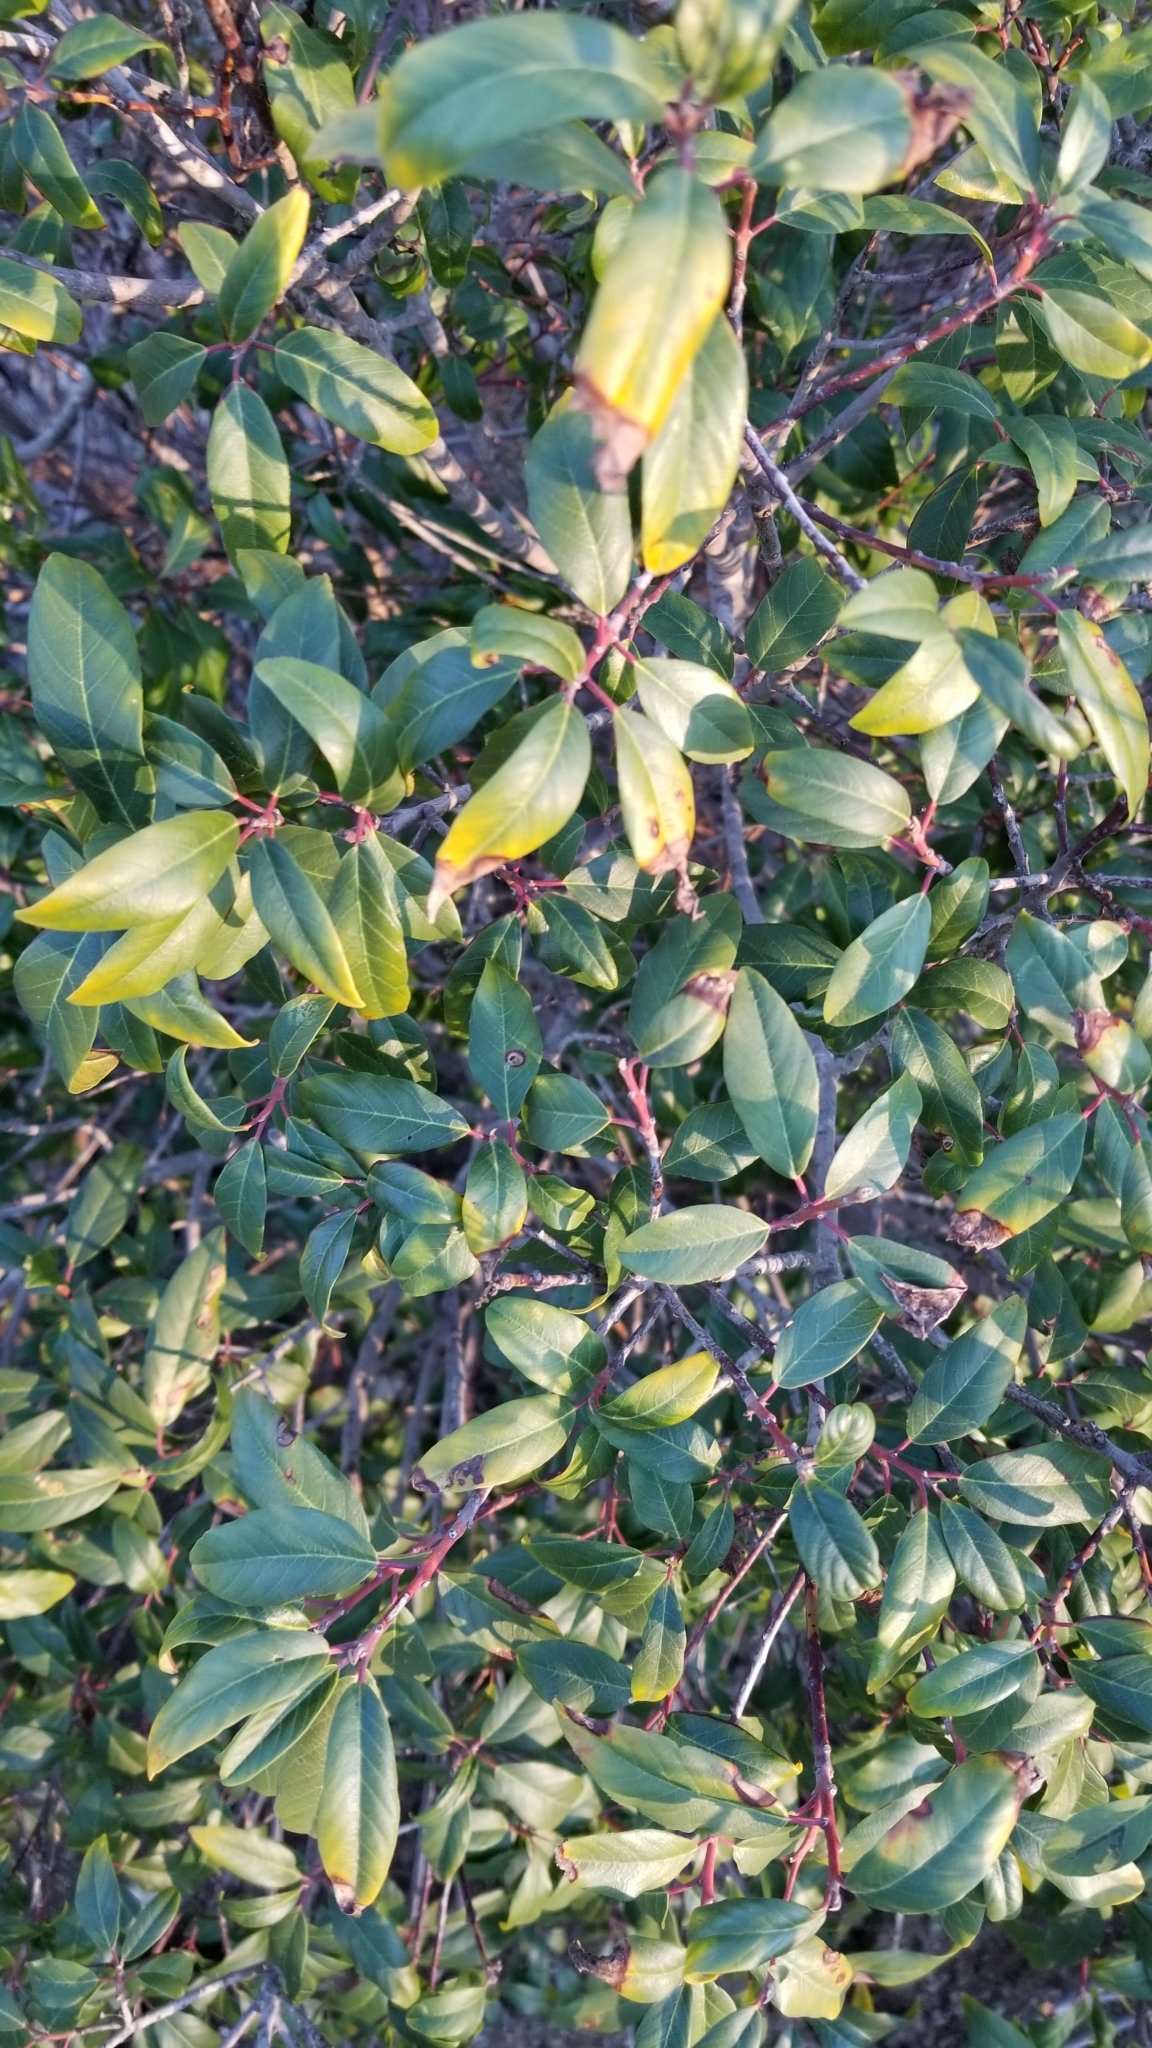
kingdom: Plantae
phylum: Tracheophyta
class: Magnoliopsida
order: Rosales
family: Rhamnaceae
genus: Frangula
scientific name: Frangula californica
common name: California buckthorn
